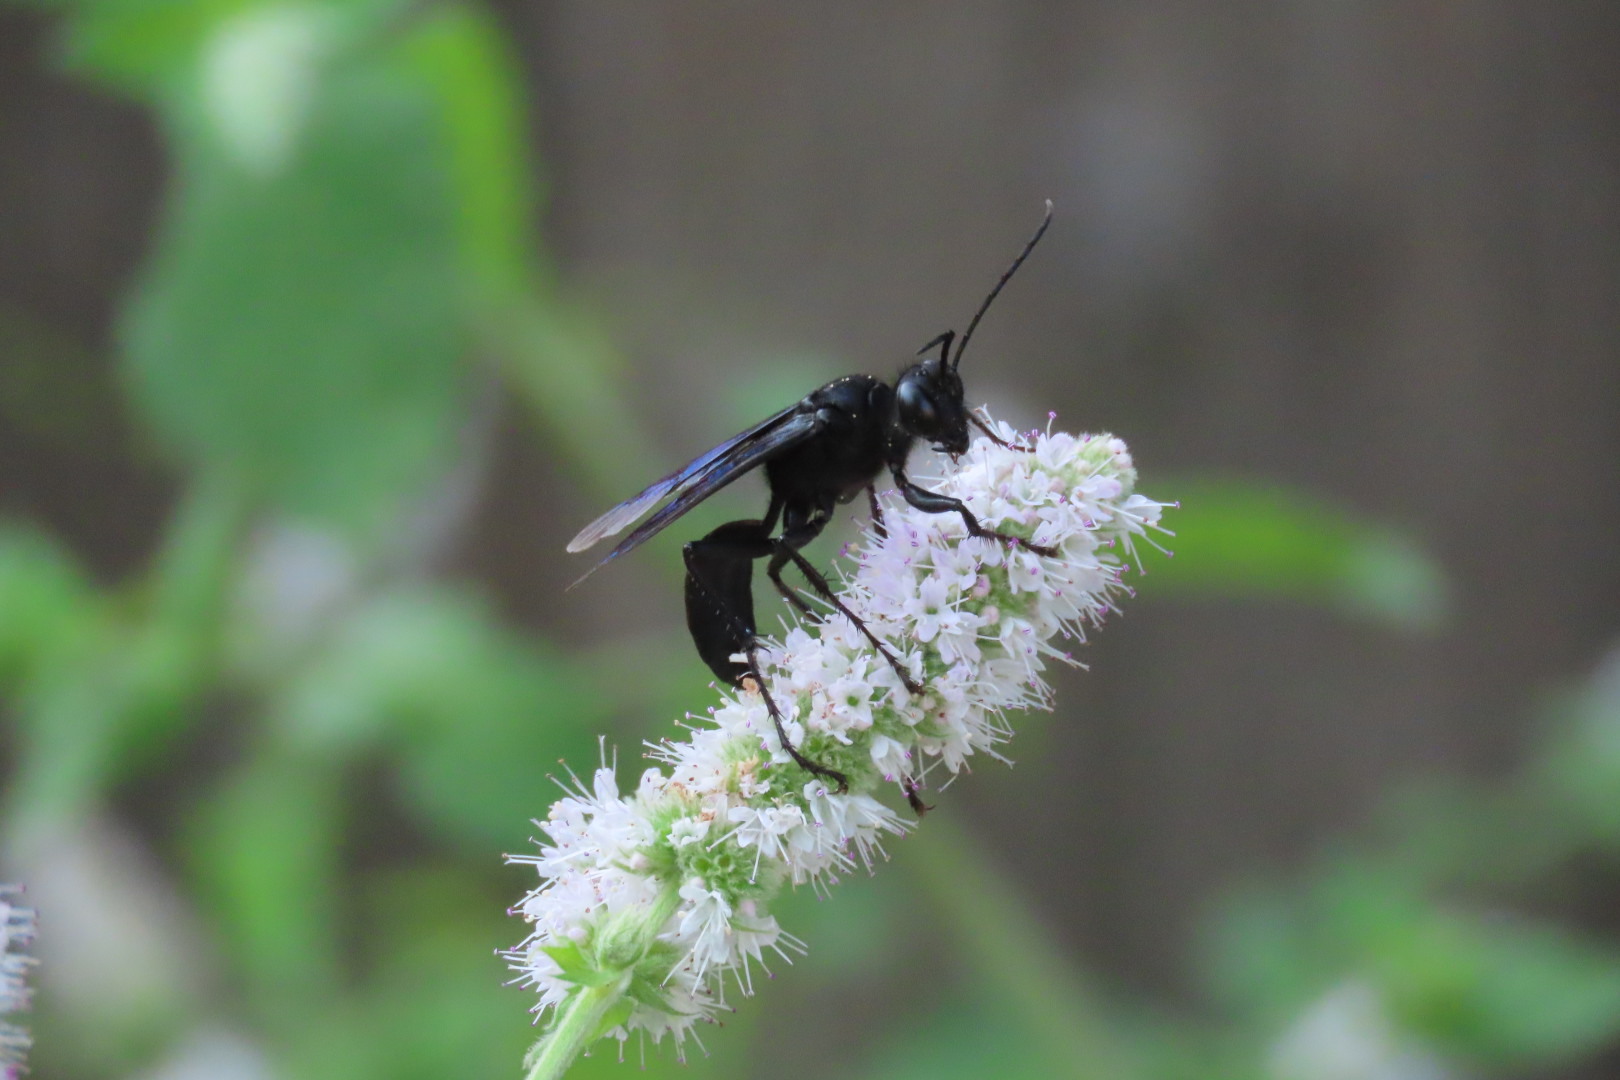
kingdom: Animalia
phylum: Arthropoda
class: Insecta
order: Hymenoptera
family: Sphecidae
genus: Sphex
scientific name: Sphex pensylvanicus
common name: Great black digger wasp
